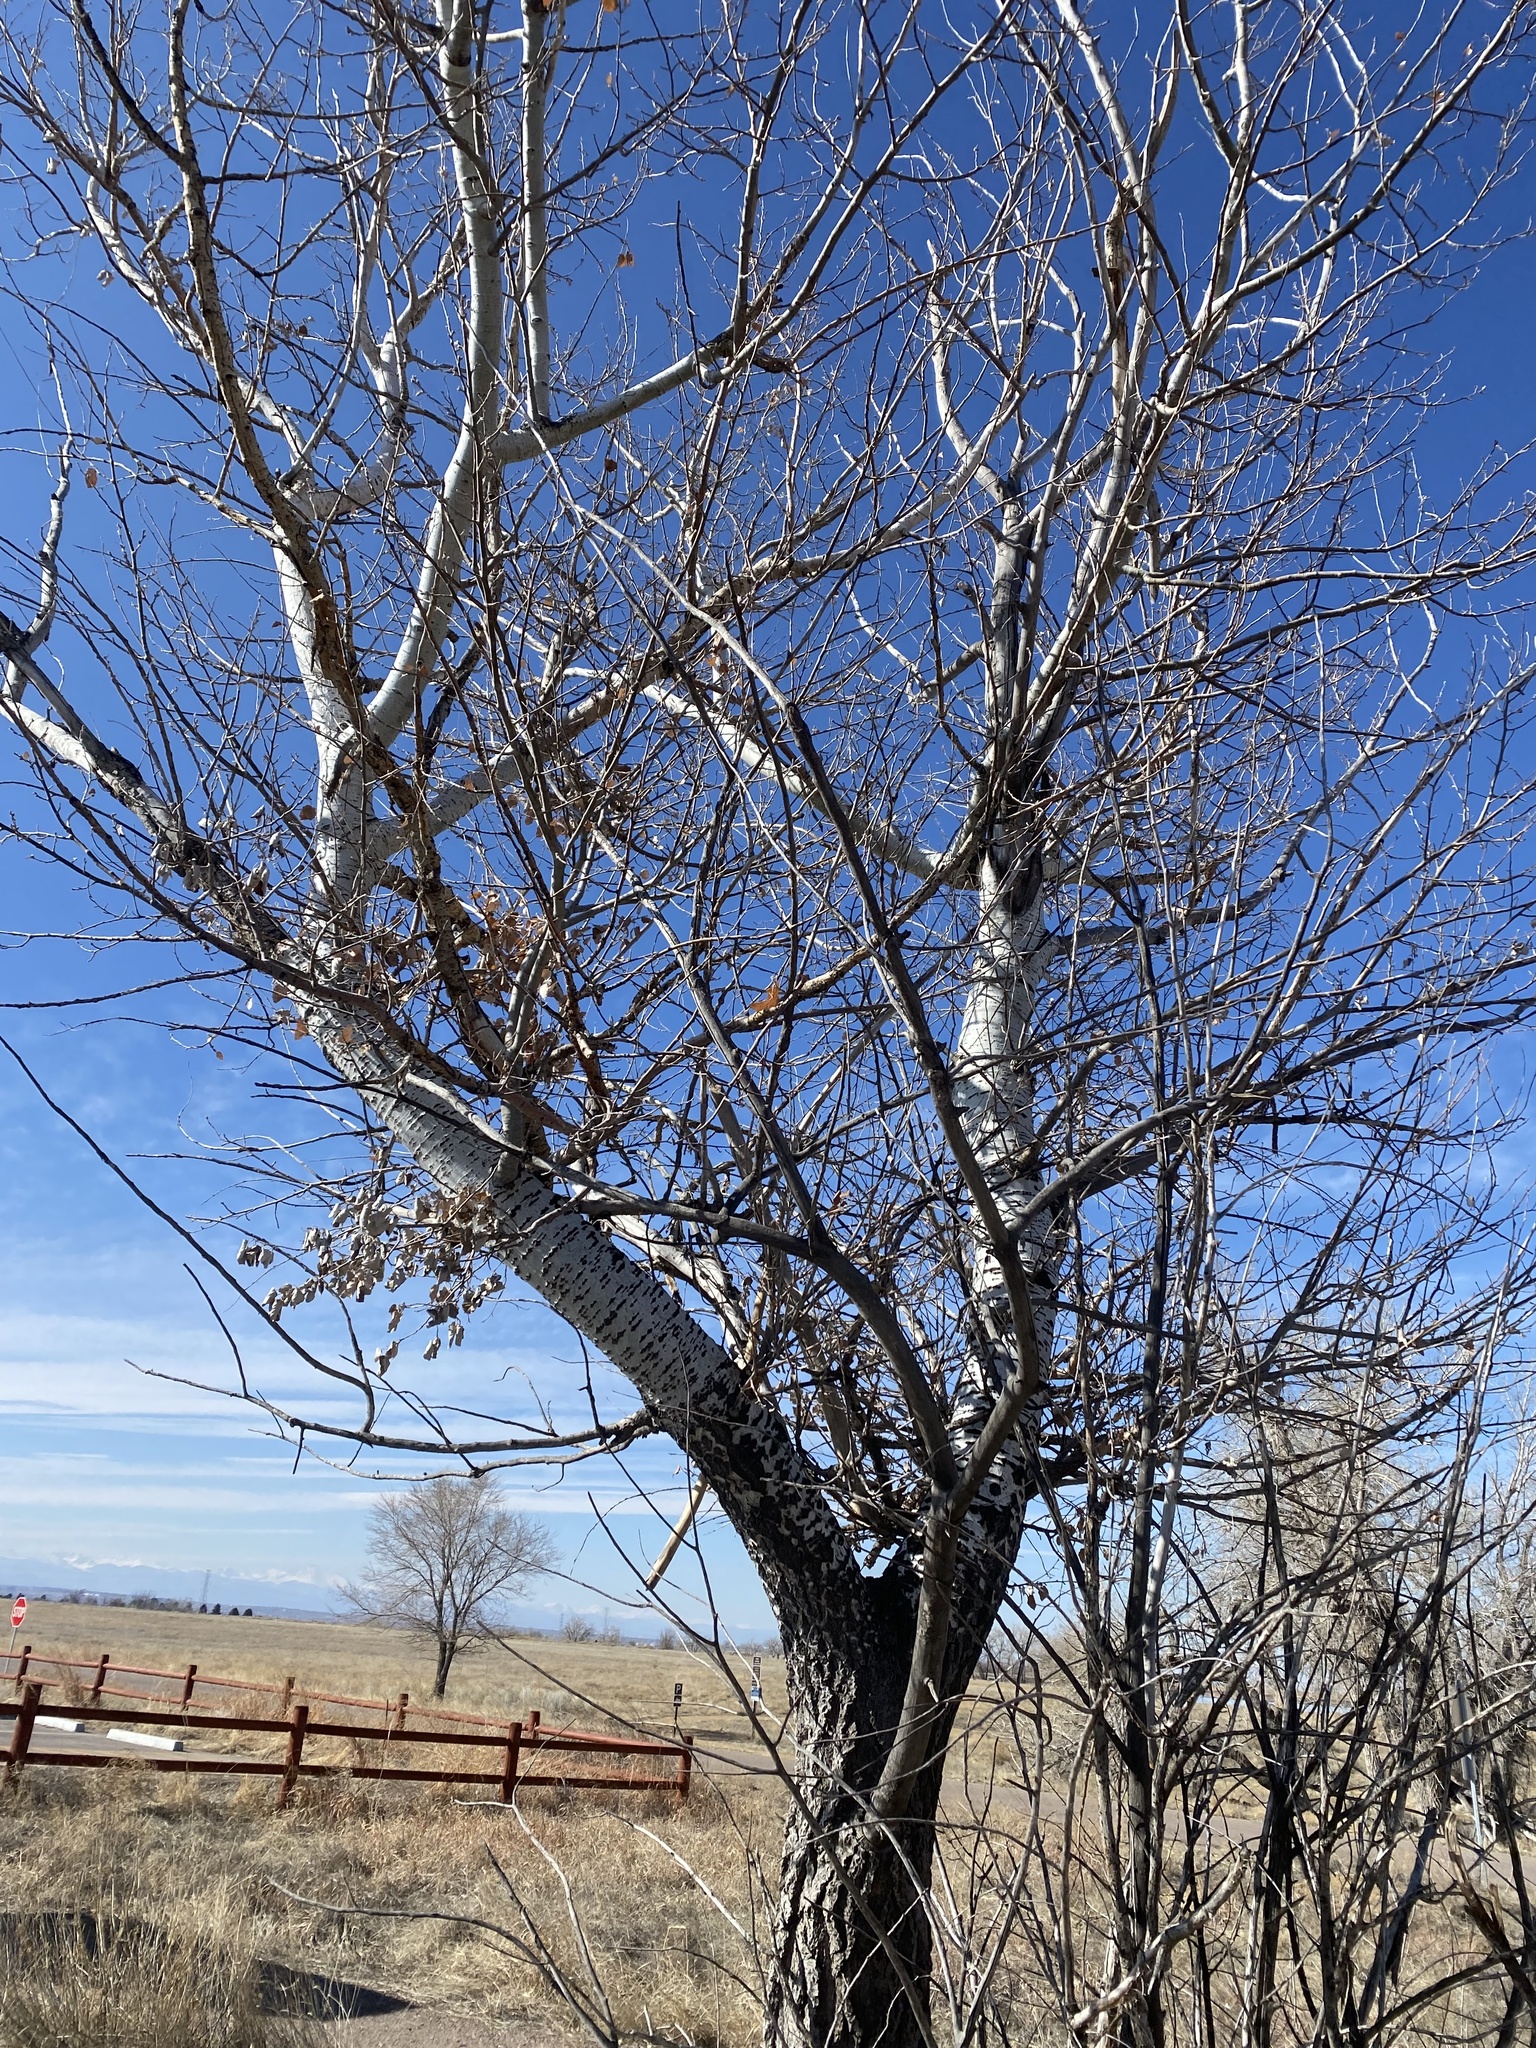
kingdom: Plantae
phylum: Tracheophyta
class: Magnoliopsida
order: Malpighiales
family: Salicaceae
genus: Populus
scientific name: Populus alba
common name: White poplar
